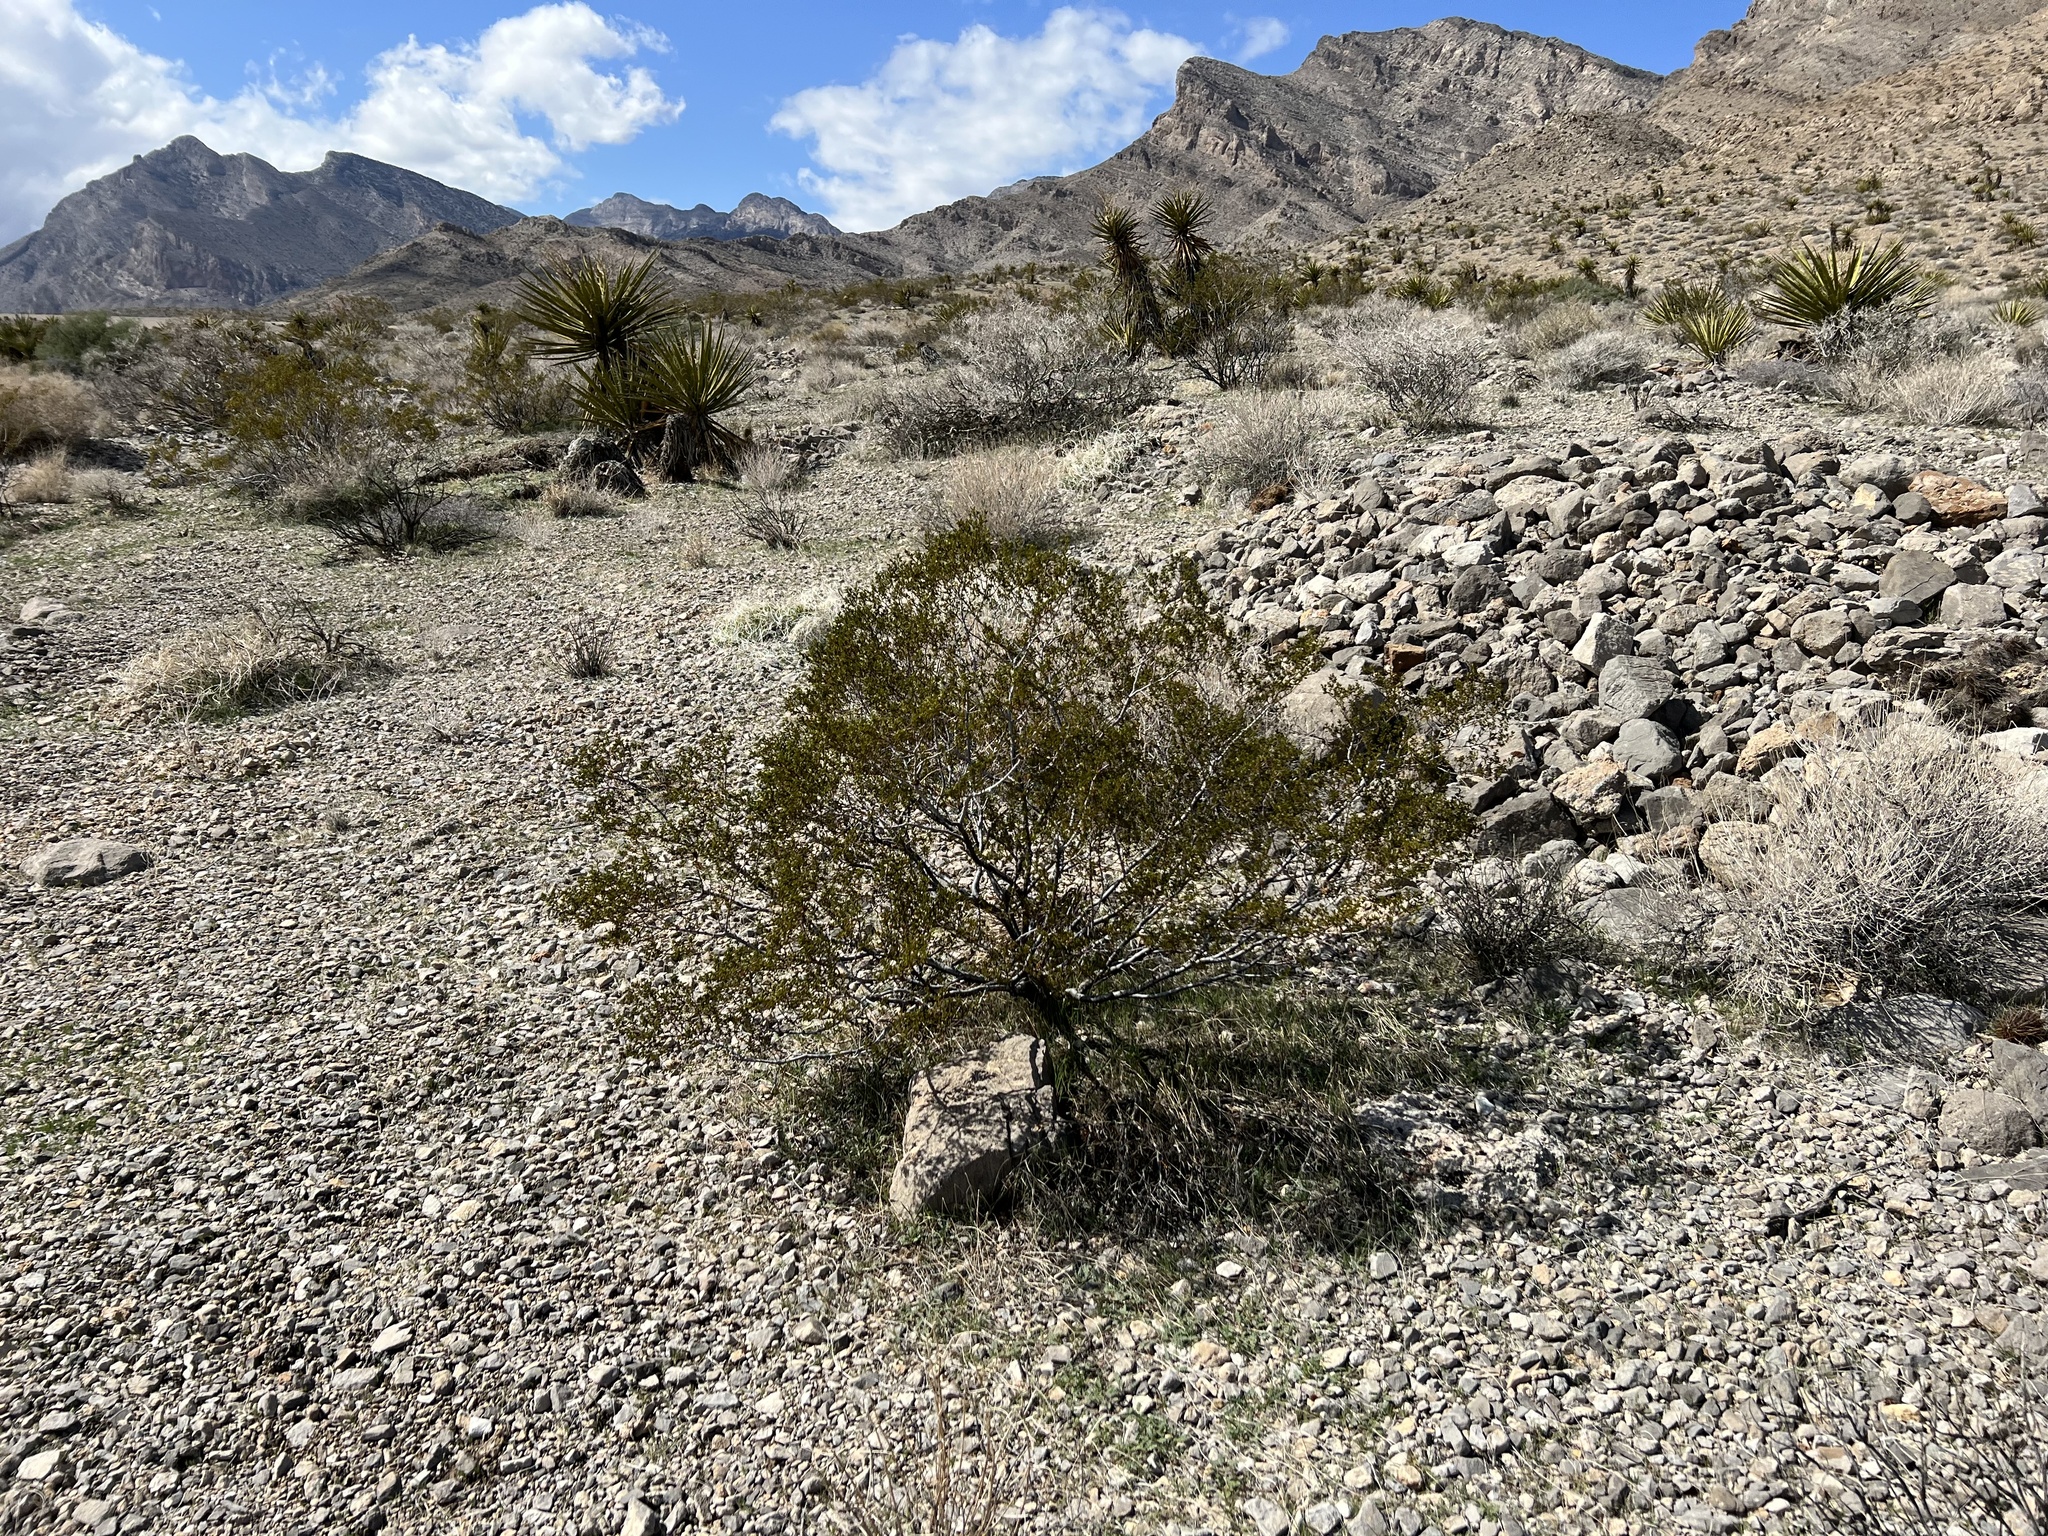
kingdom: Plantae
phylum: Tracheophyta
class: Magnoliopsida
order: Zygophyllales
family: Zygophyllaceae
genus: Larrea
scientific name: Larrea tridentata
